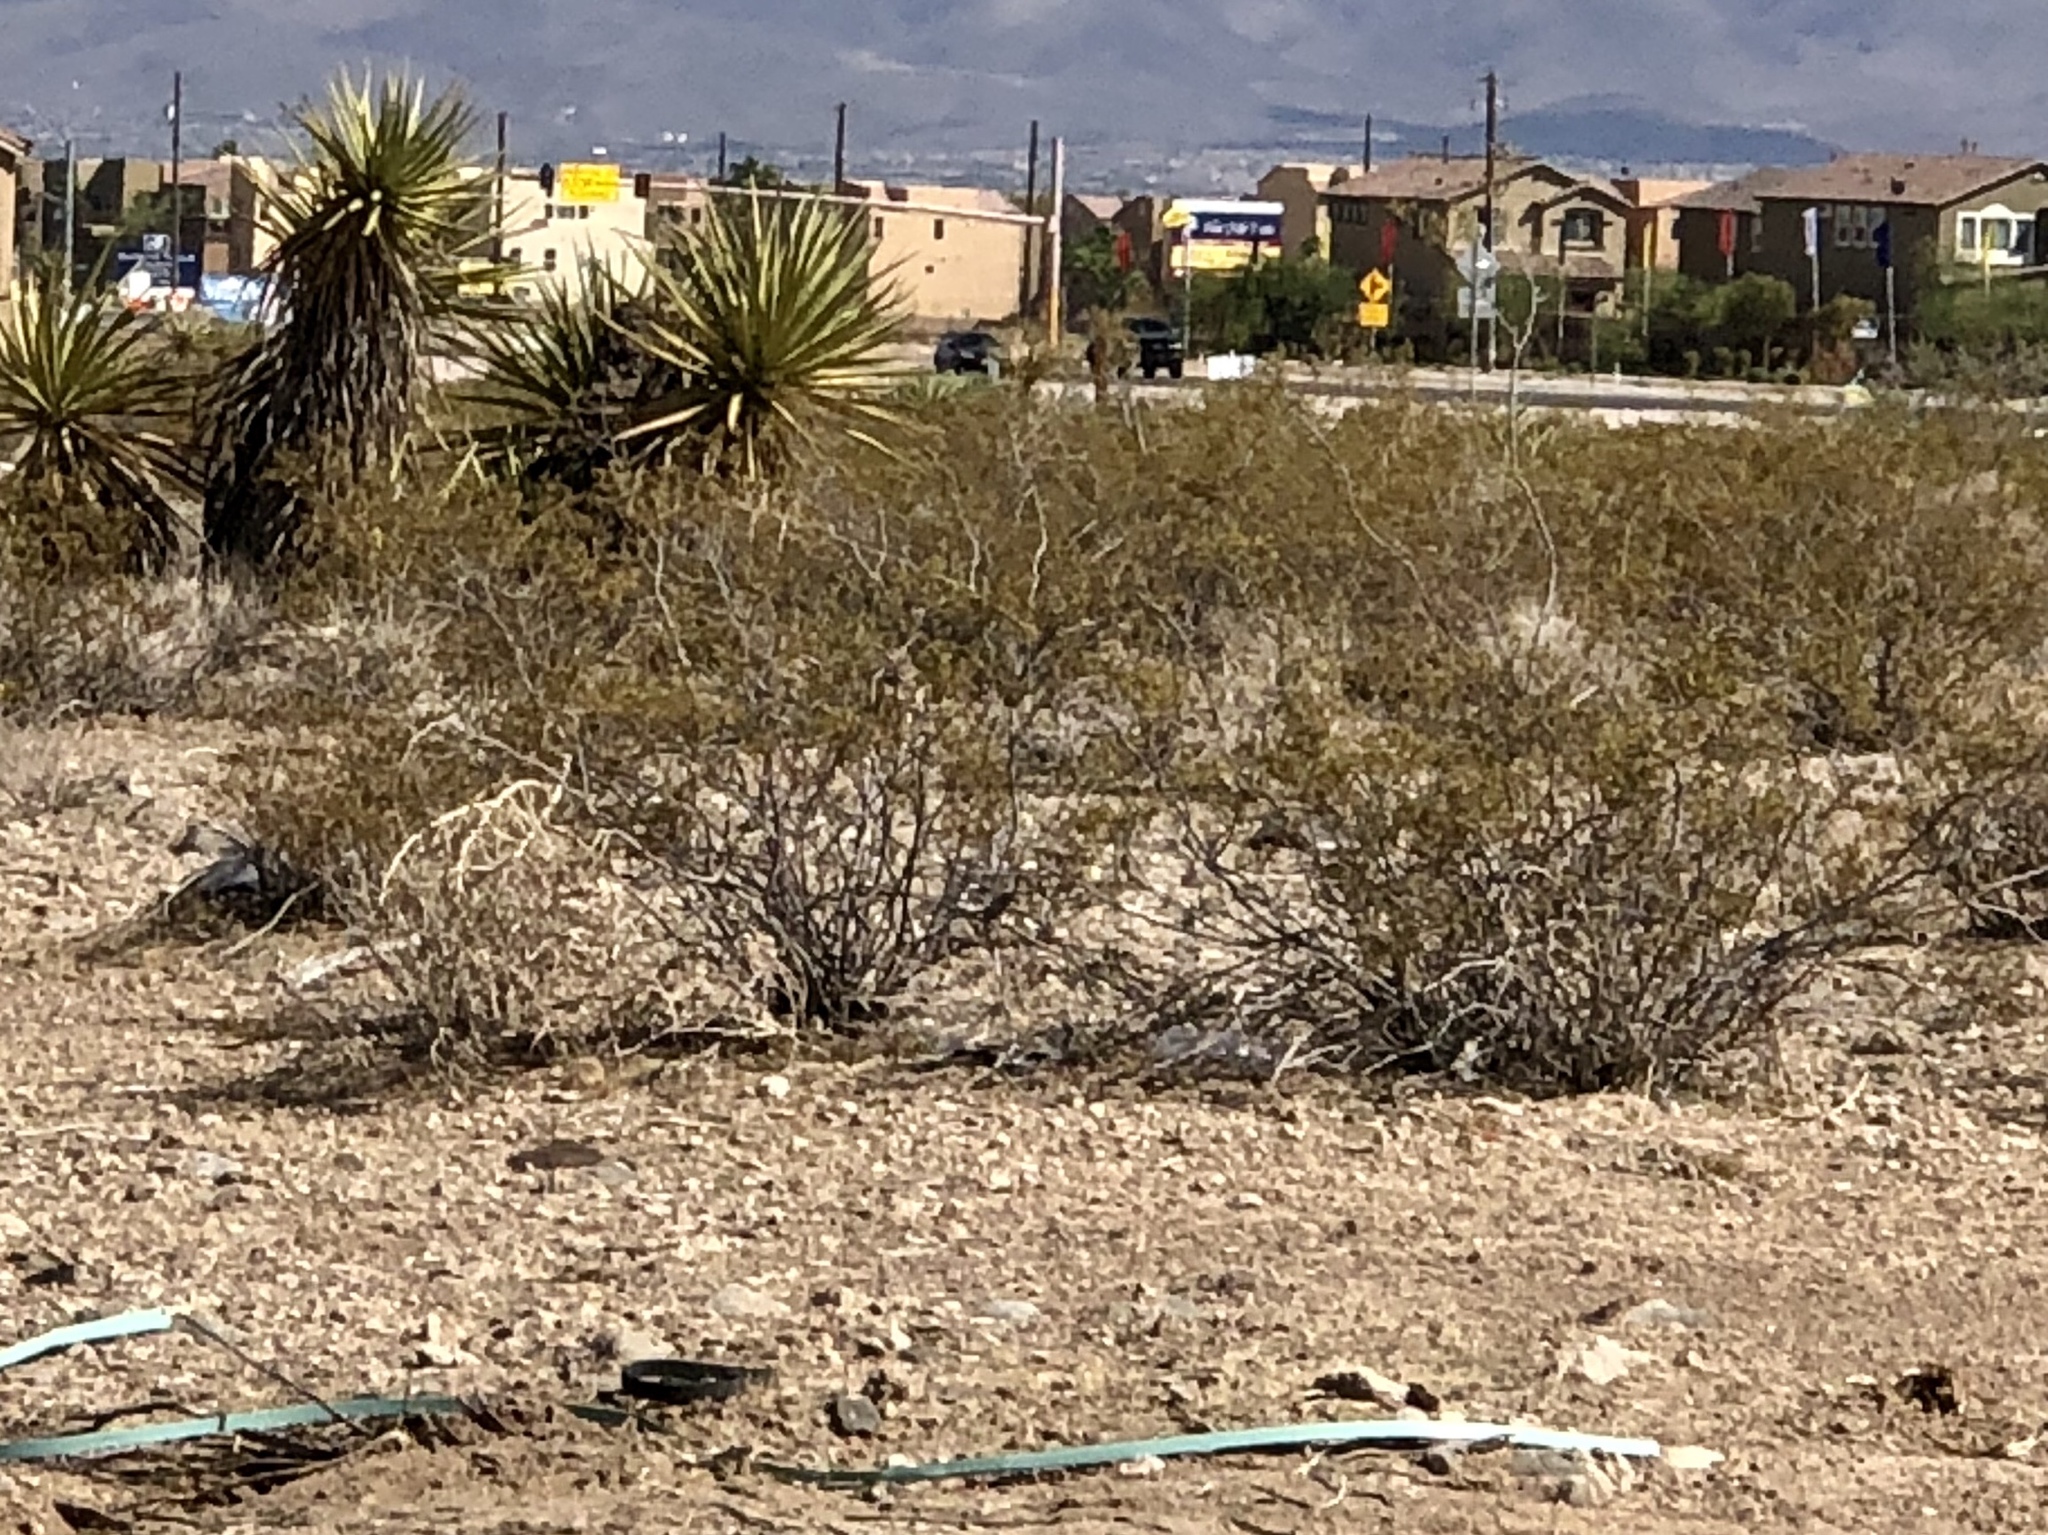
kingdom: Plantae
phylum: Tracheophyta
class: Magnoliopsida
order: Zygophyllales
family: Zygophyllaceae
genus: Larrea
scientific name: Larrea tridentata
